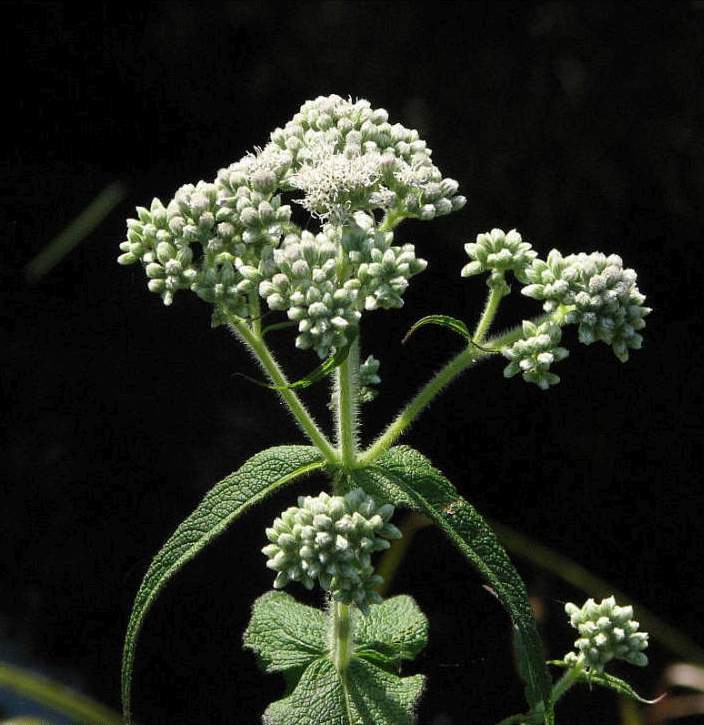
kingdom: Plantae
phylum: Tracheophyta
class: Magnoliopsida
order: Asterales
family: Asteraceae
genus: Eupatorium
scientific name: Eupatorium perfoliatum
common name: Boneset
